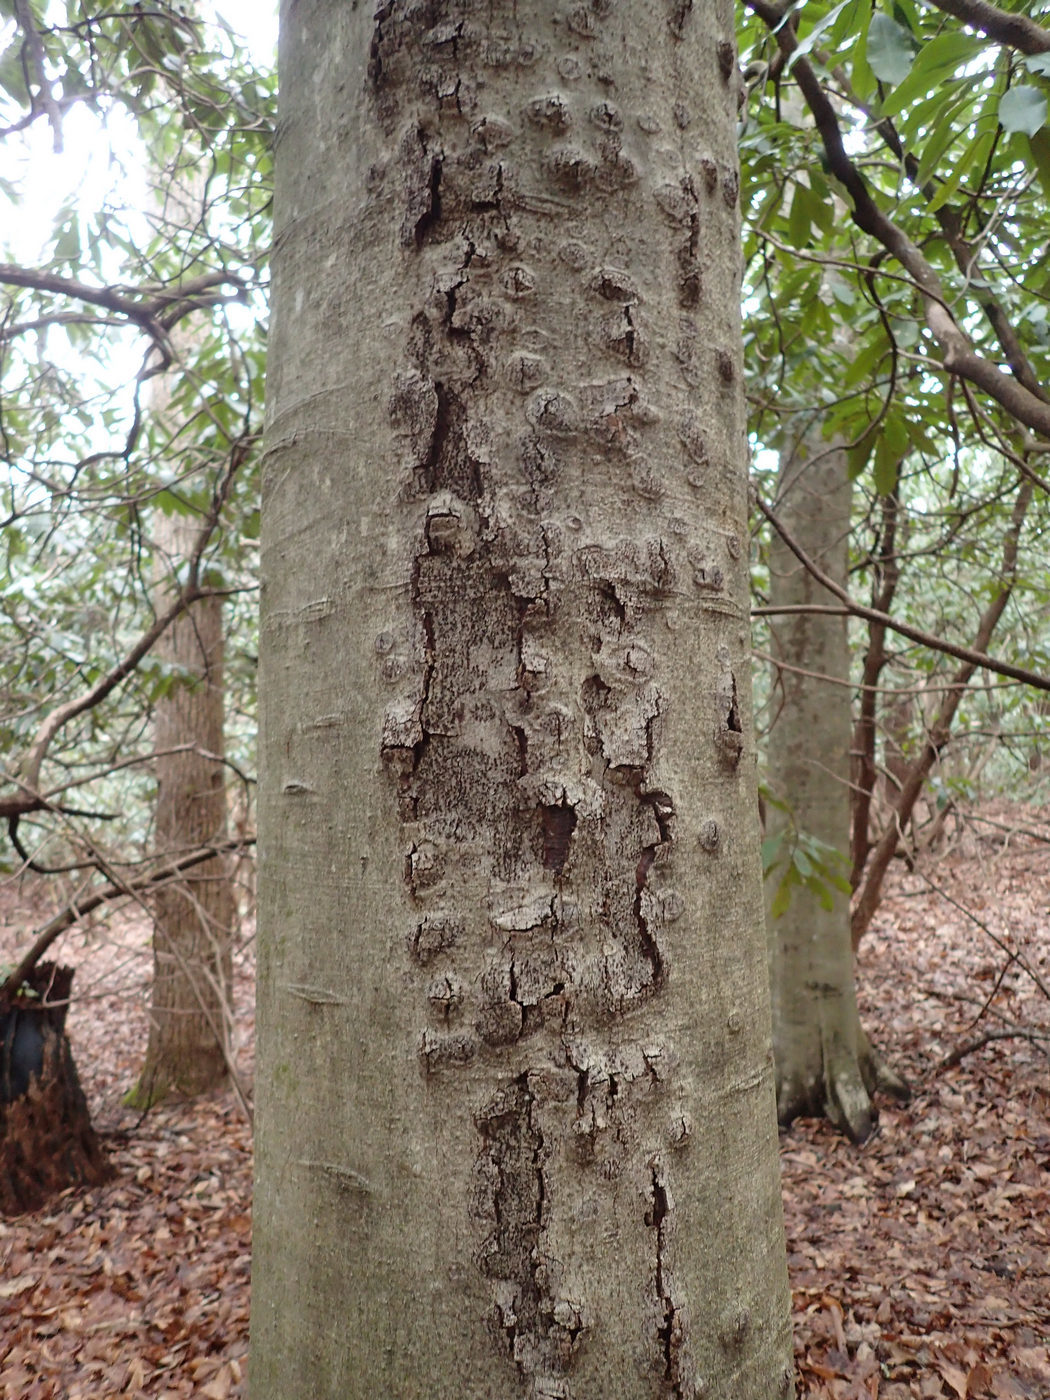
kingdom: Plantae
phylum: Tracheophyta
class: Magnoliopsida
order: Fagales
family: Fagaceae
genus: Fagus
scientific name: Fagus grandifolia
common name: American beech
